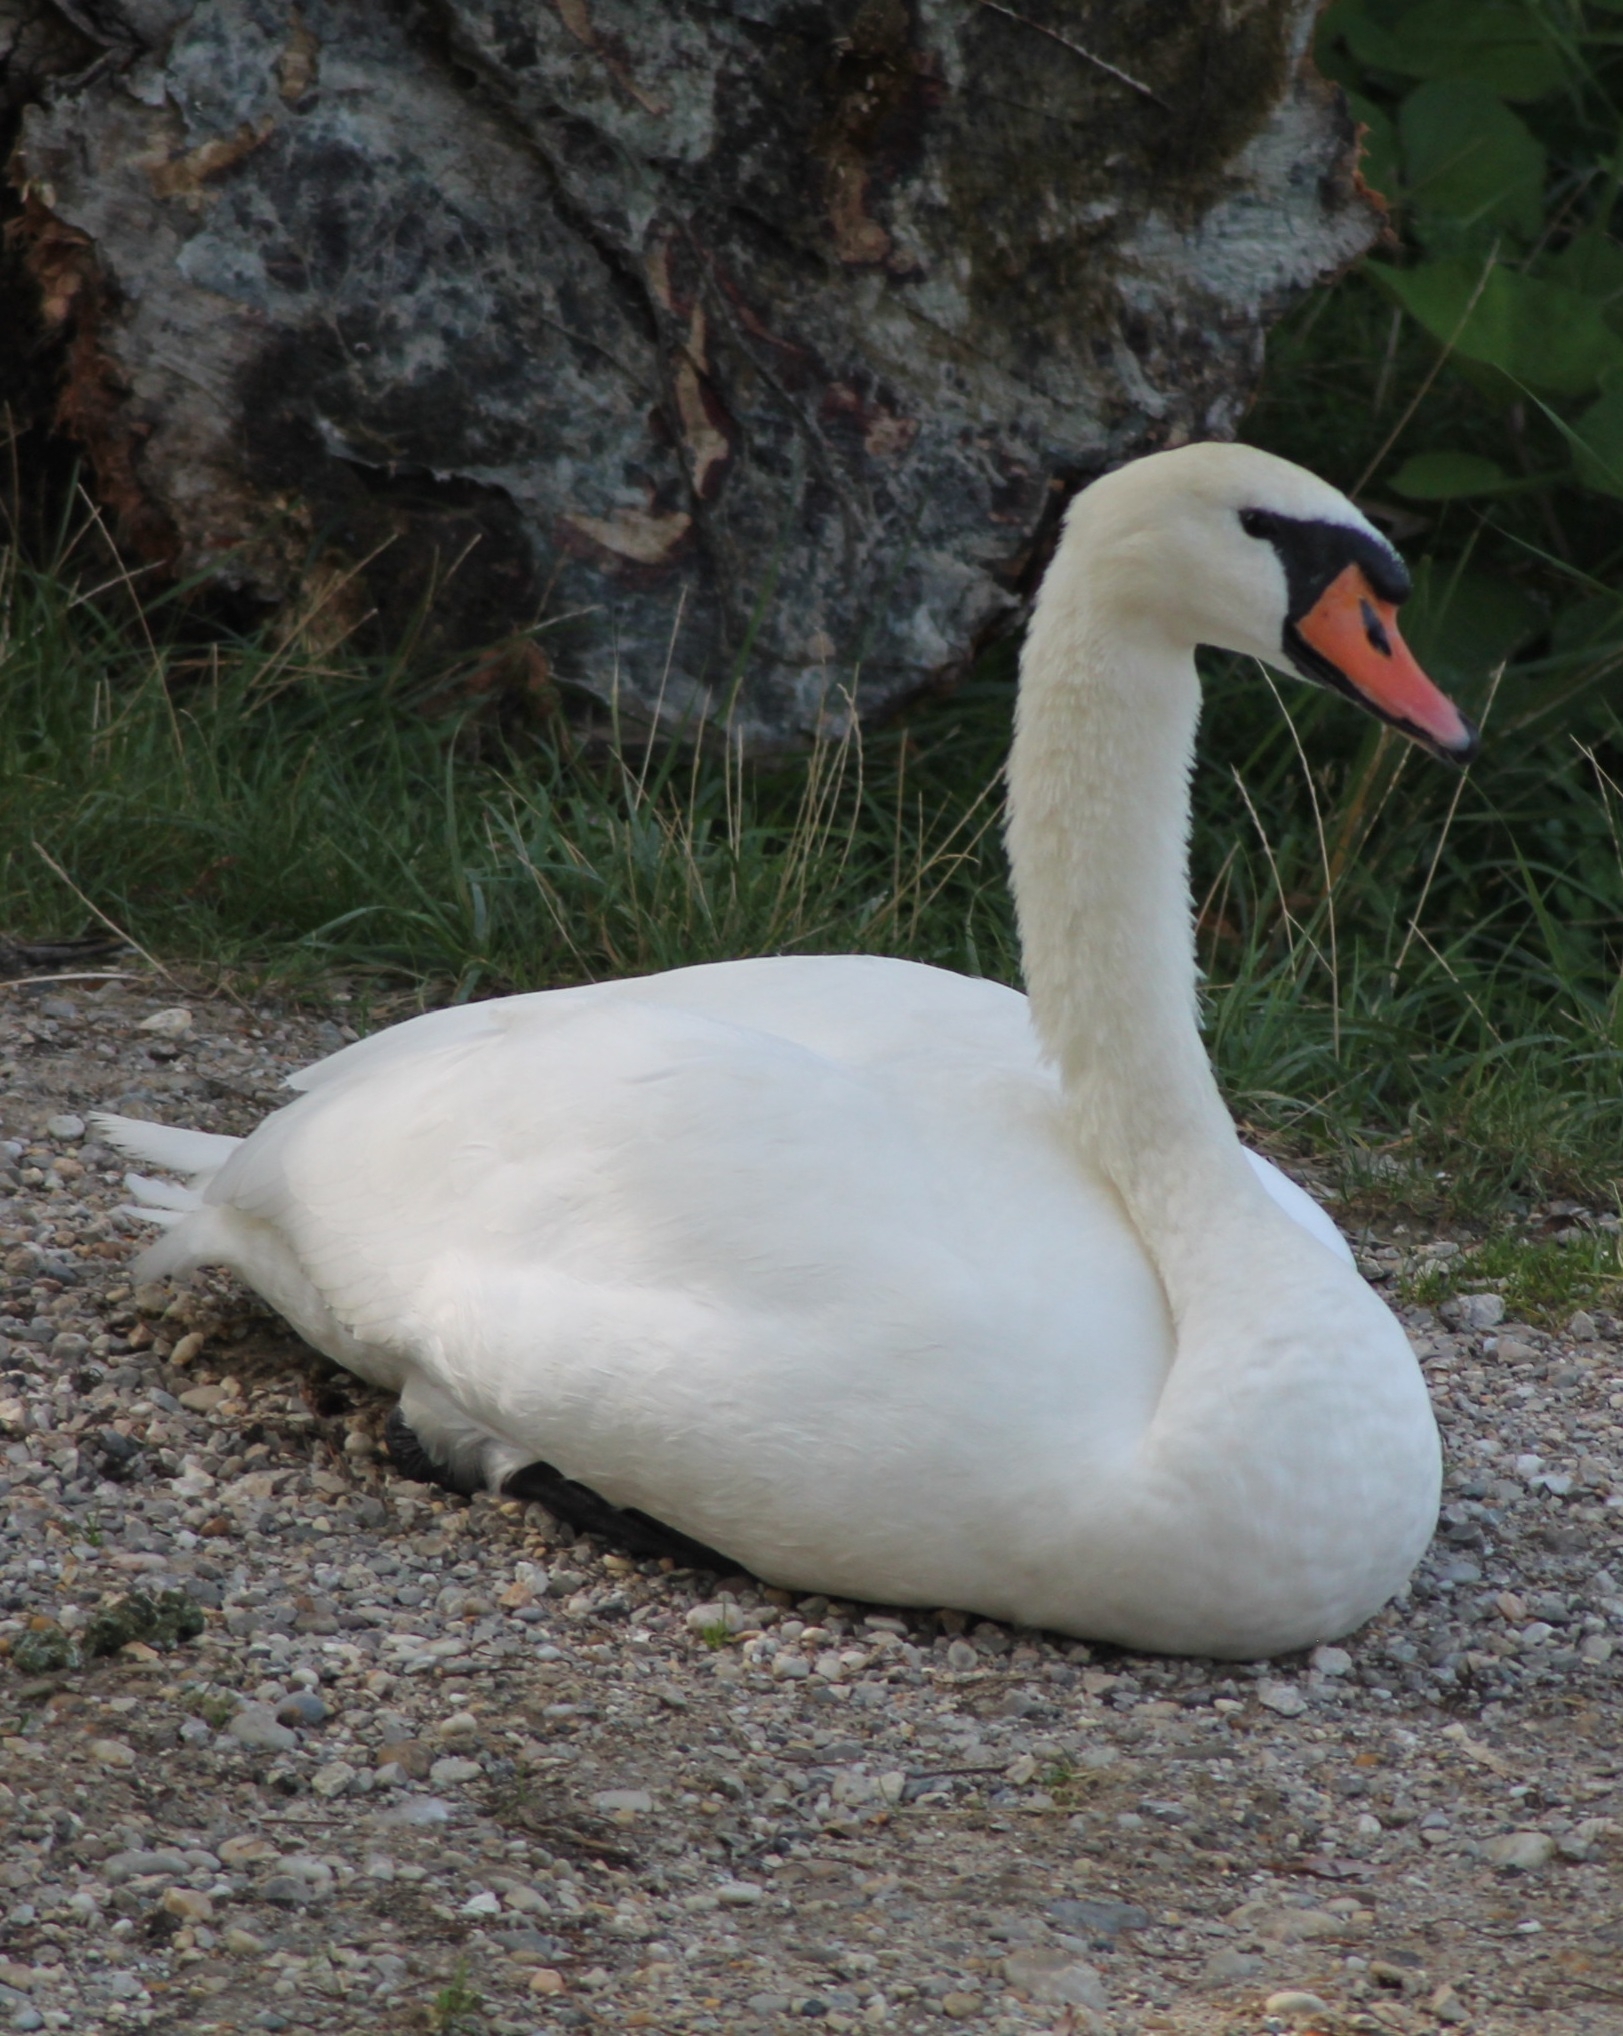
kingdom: Animalia
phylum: Chordata
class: Aves
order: Anseriformes
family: Anatidae
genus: Cygnus
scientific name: Cygnus olor
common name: Mute swan
